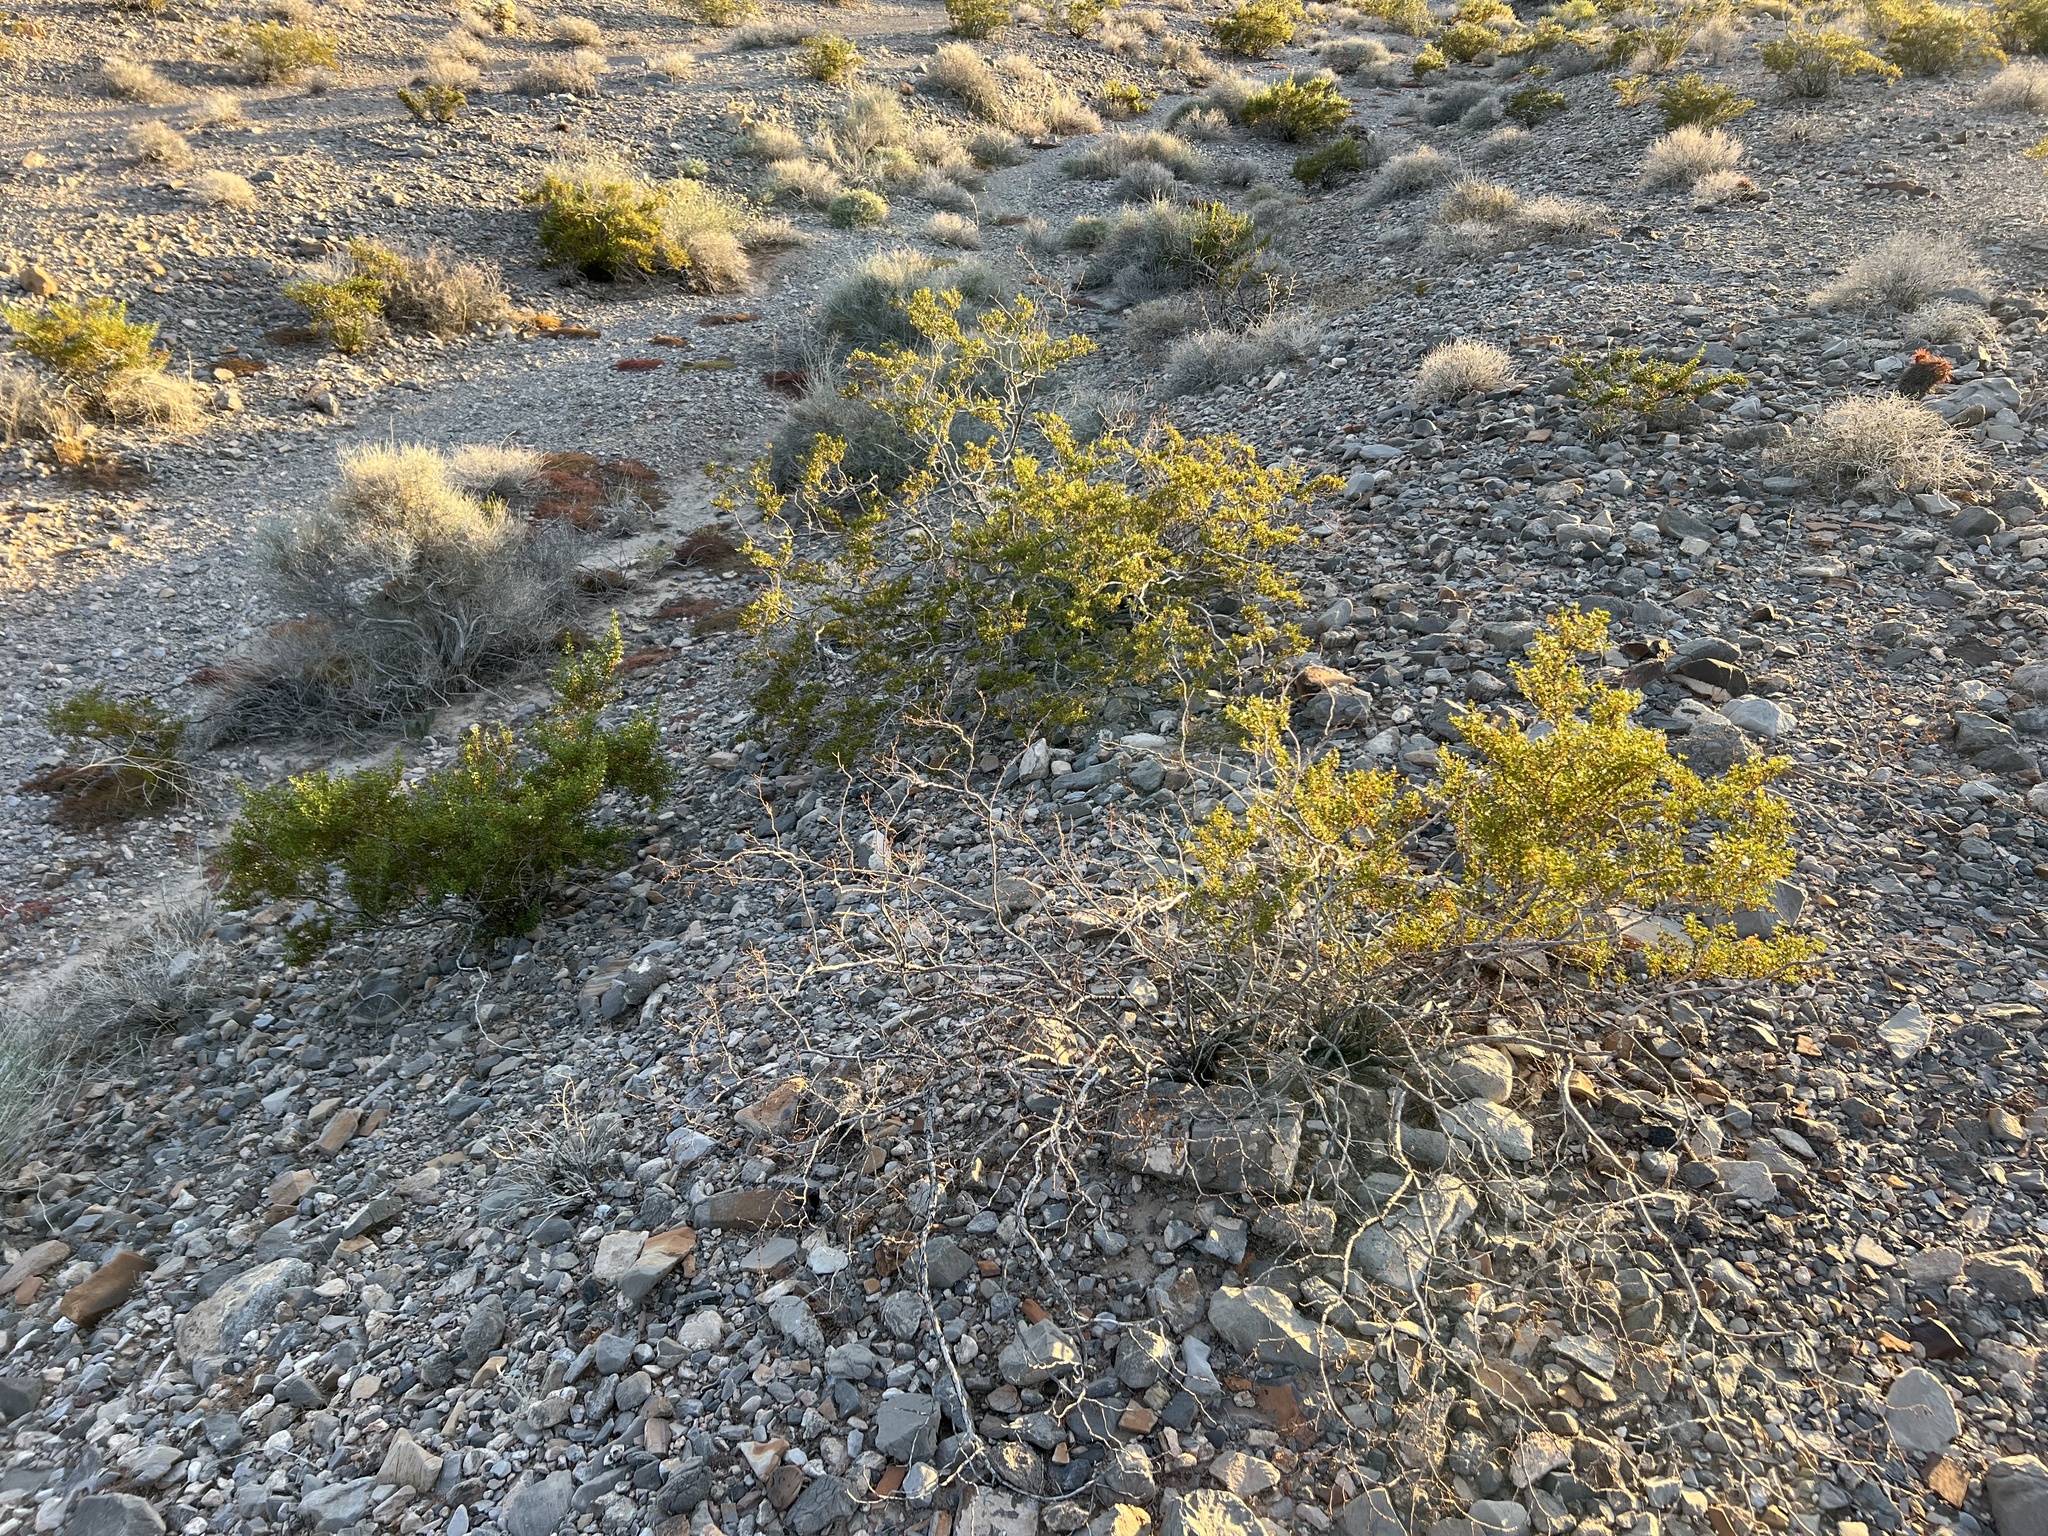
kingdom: Plantae
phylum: Tracheophyta
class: Magnoliopsida
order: Zygophyllales
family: Zygophyllaceae
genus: Larrea
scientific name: Larrea tridentata
